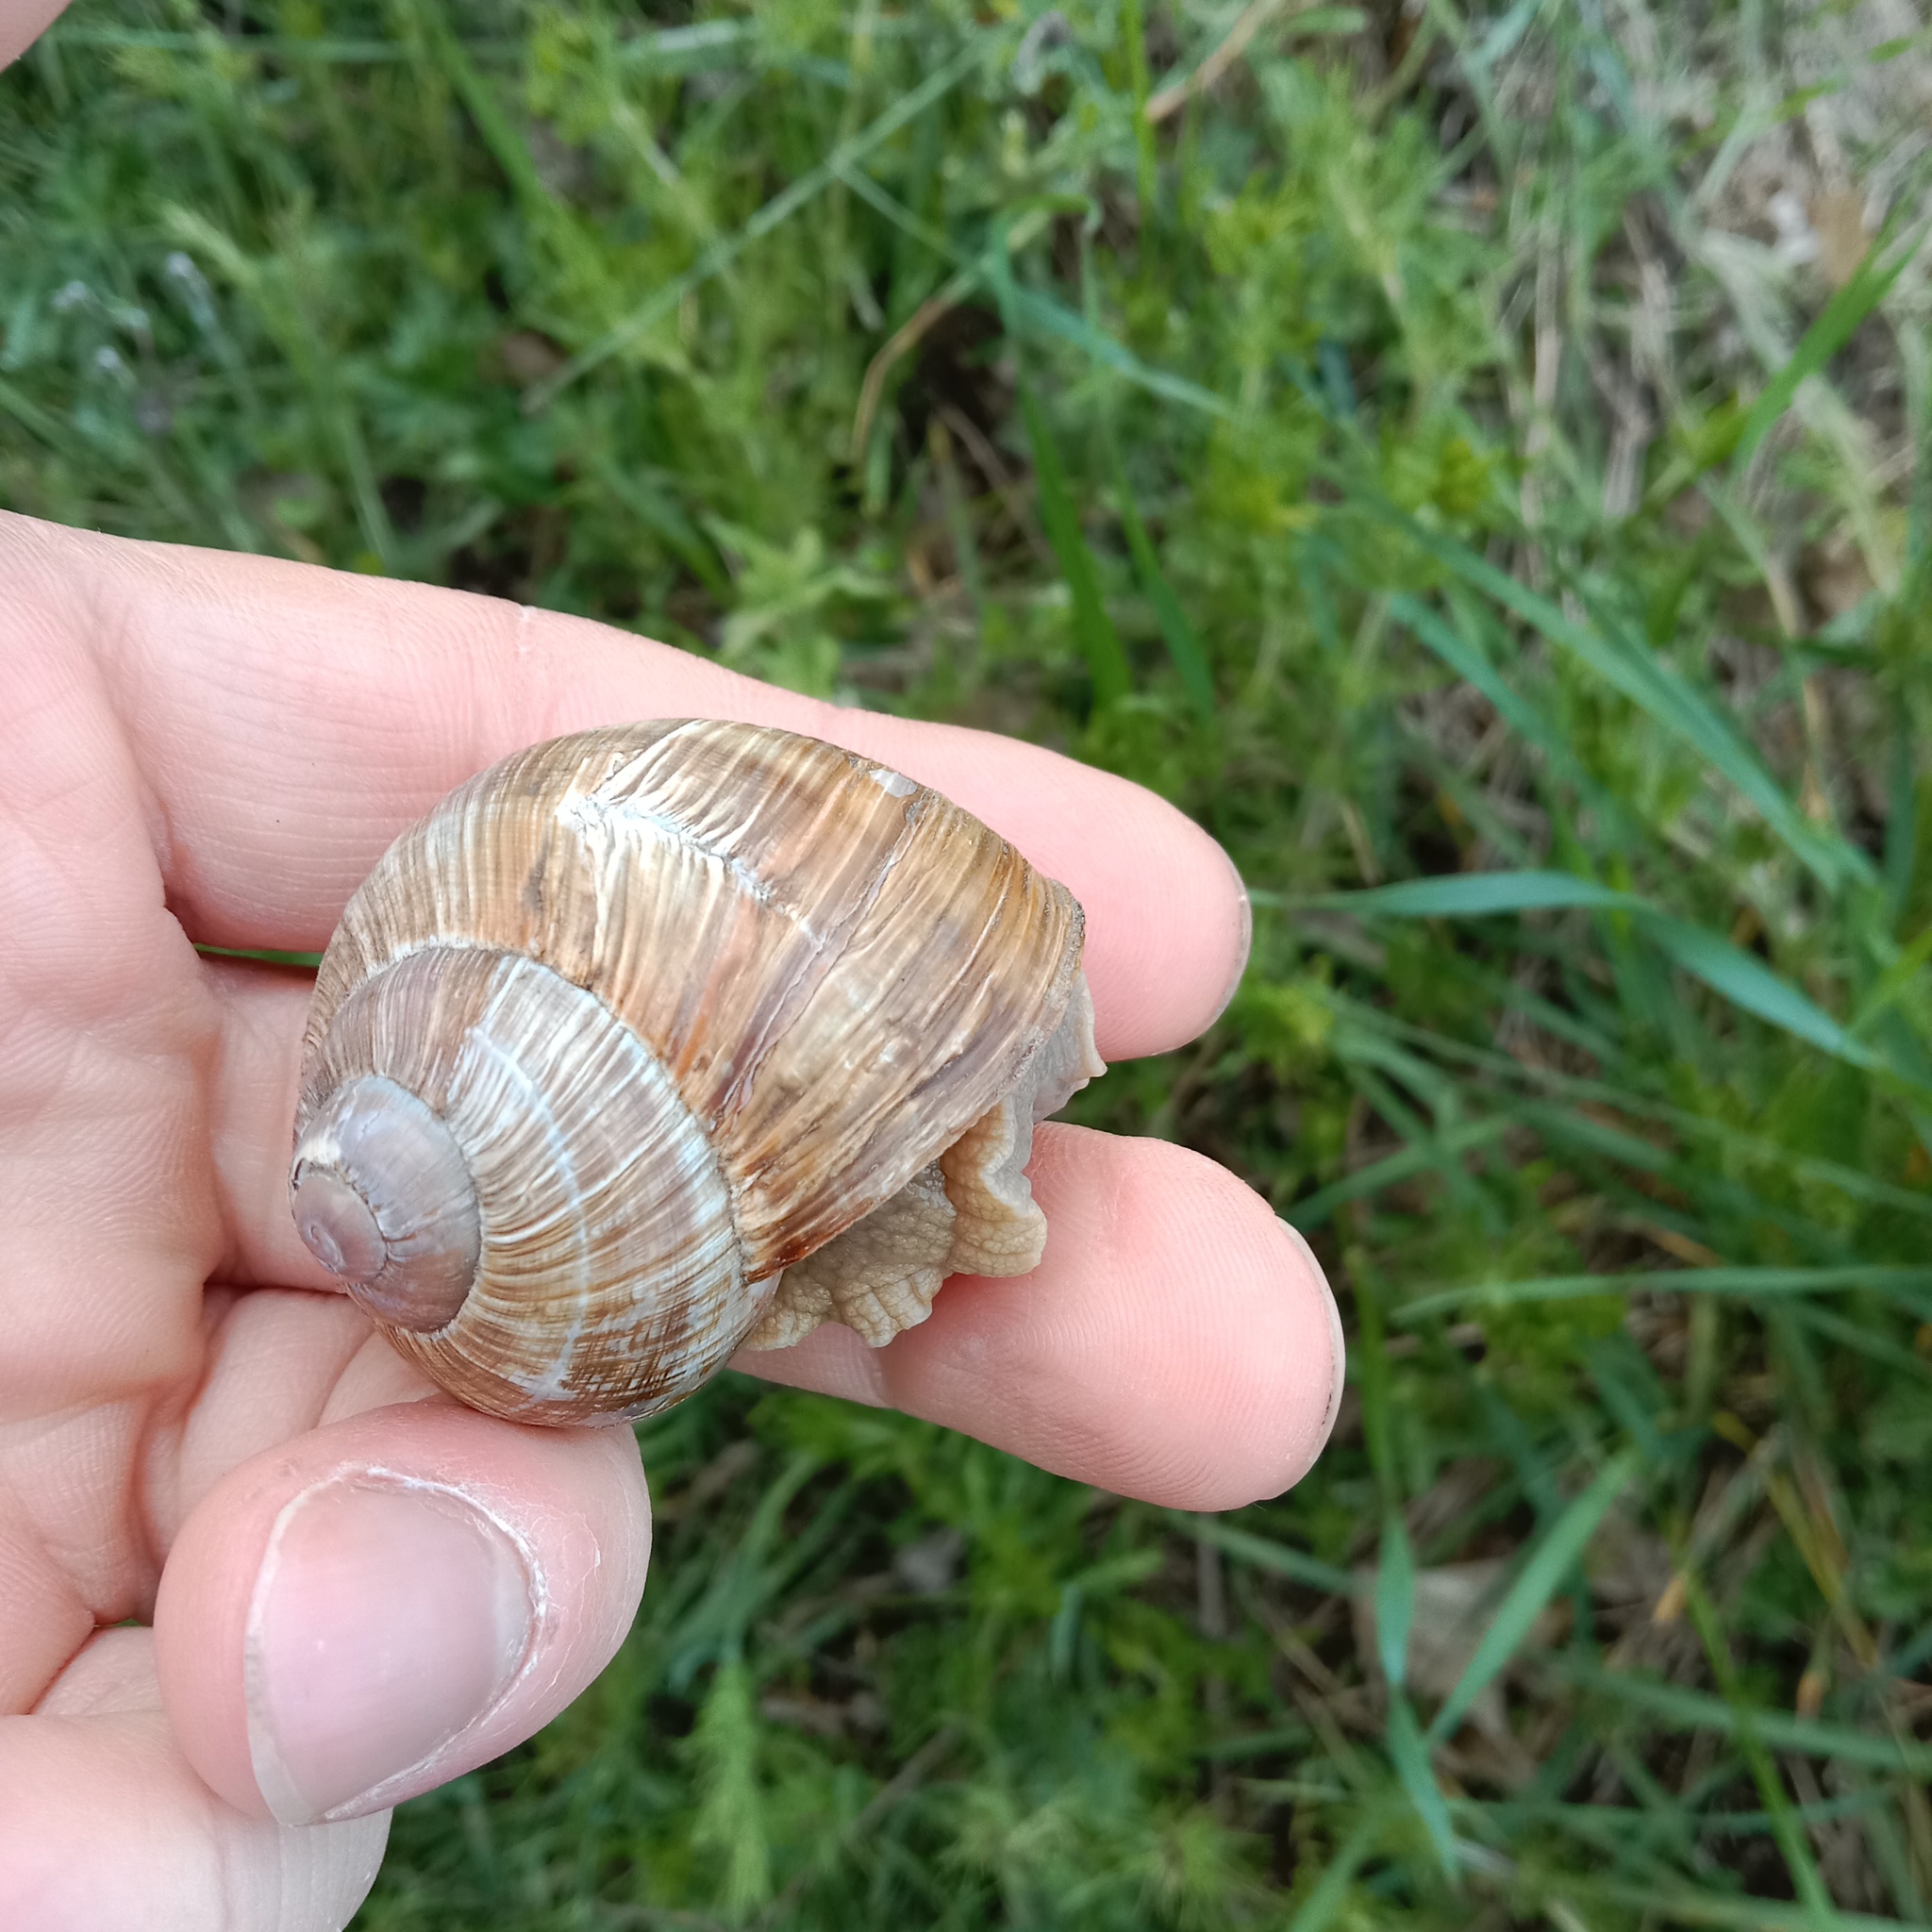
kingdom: Animalia
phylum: Mollusca
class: Gastropoda
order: Stylommatophora
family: Helicidae
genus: Helix
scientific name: Helix pomatia
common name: Roman snail
